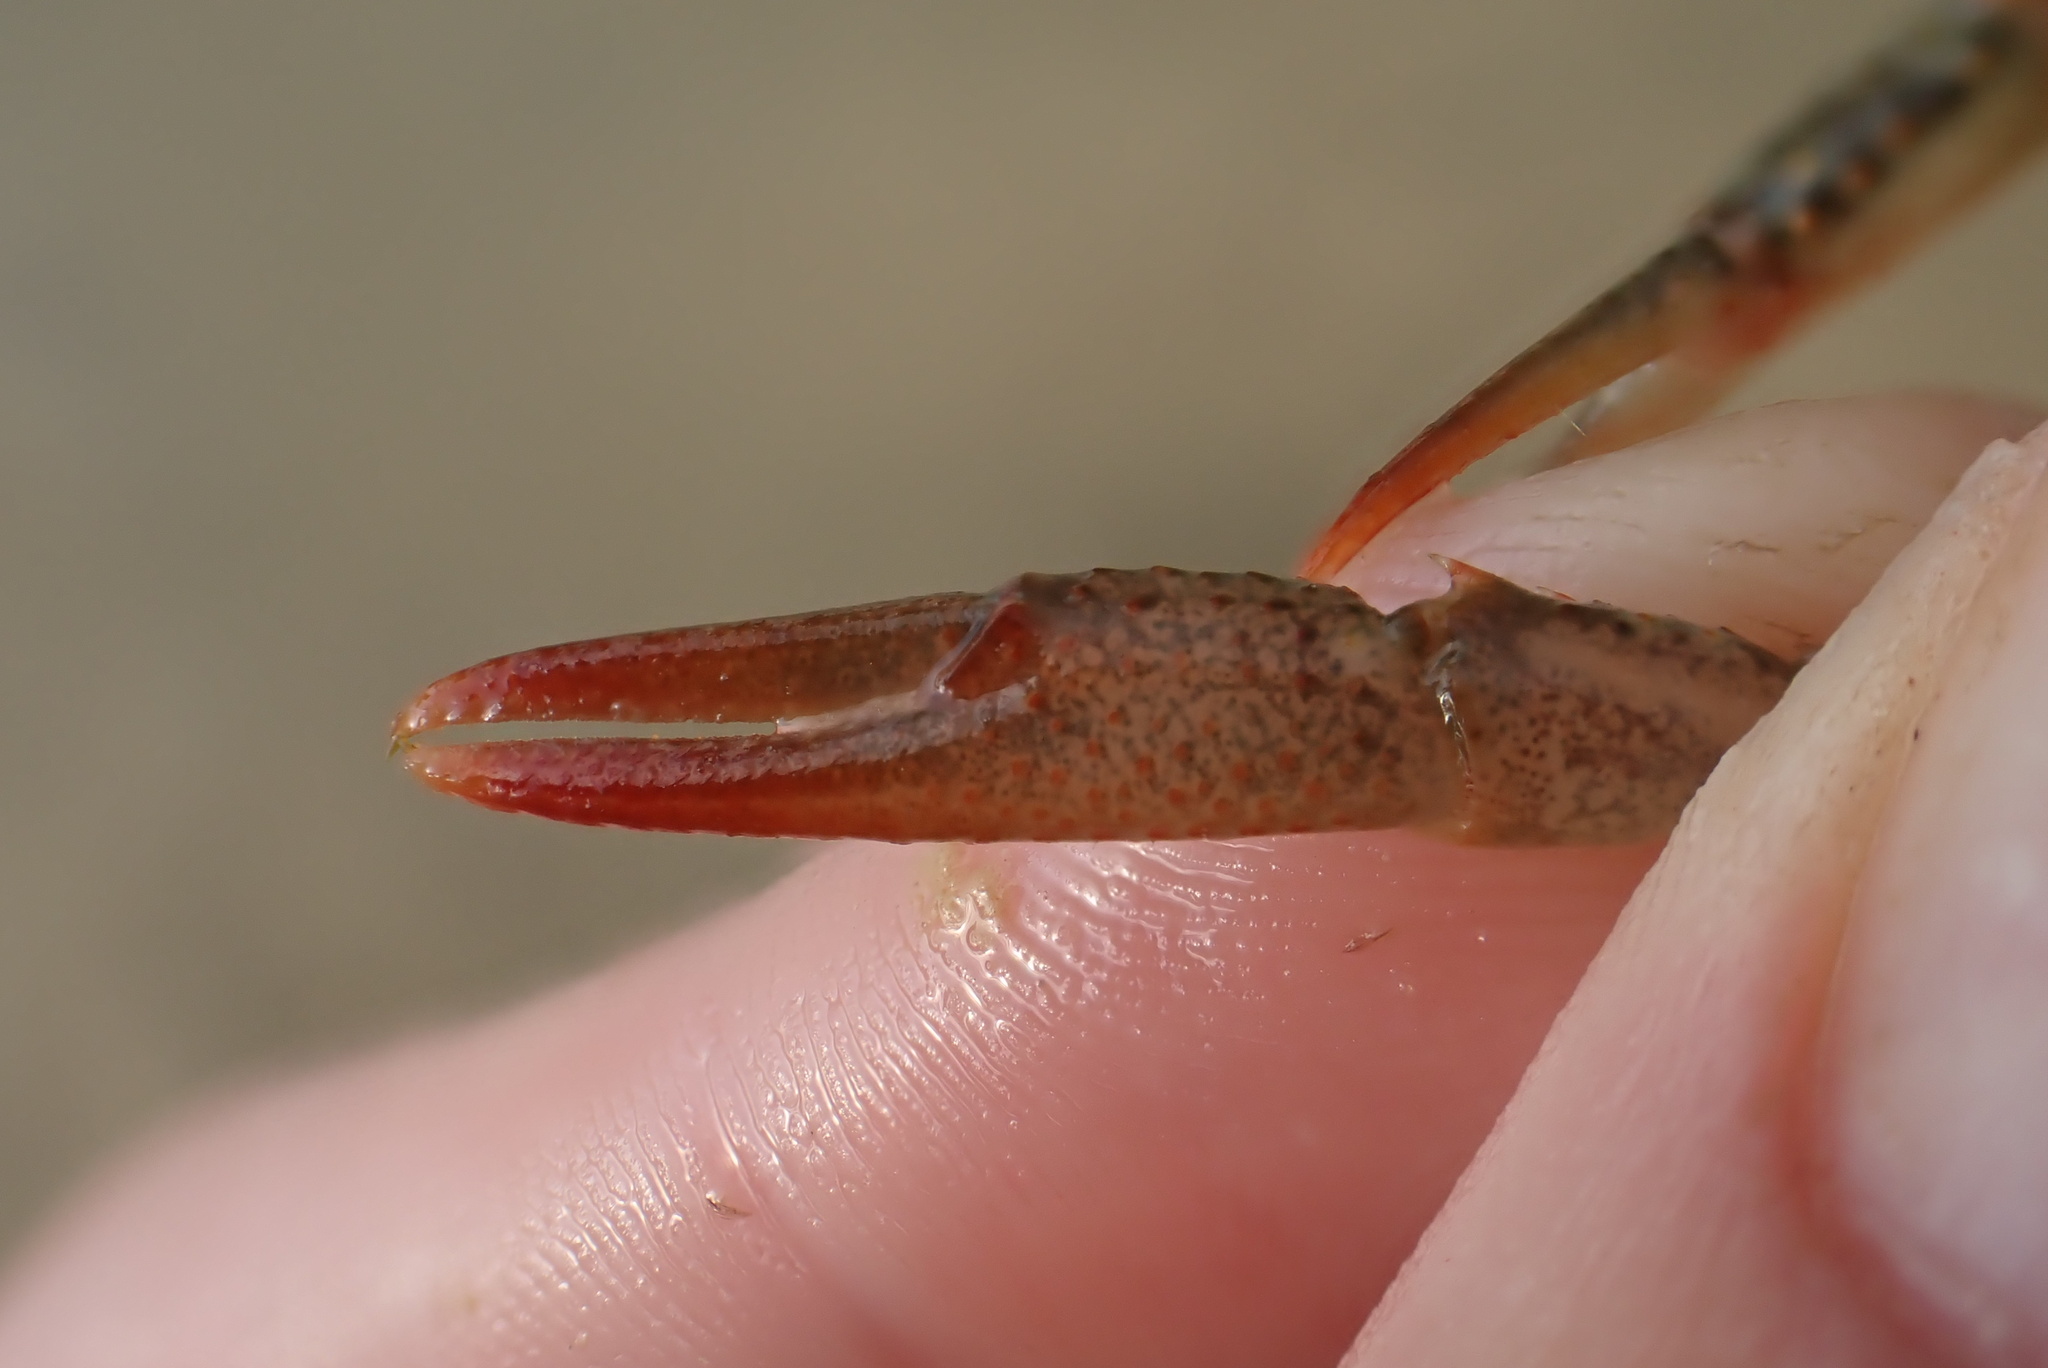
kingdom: Animalia
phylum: Arthropoda
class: Malacostraca
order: Decapoda
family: Cambaridae
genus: Procambarus
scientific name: Procambarus clarkii
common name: Red swamp crayfish
